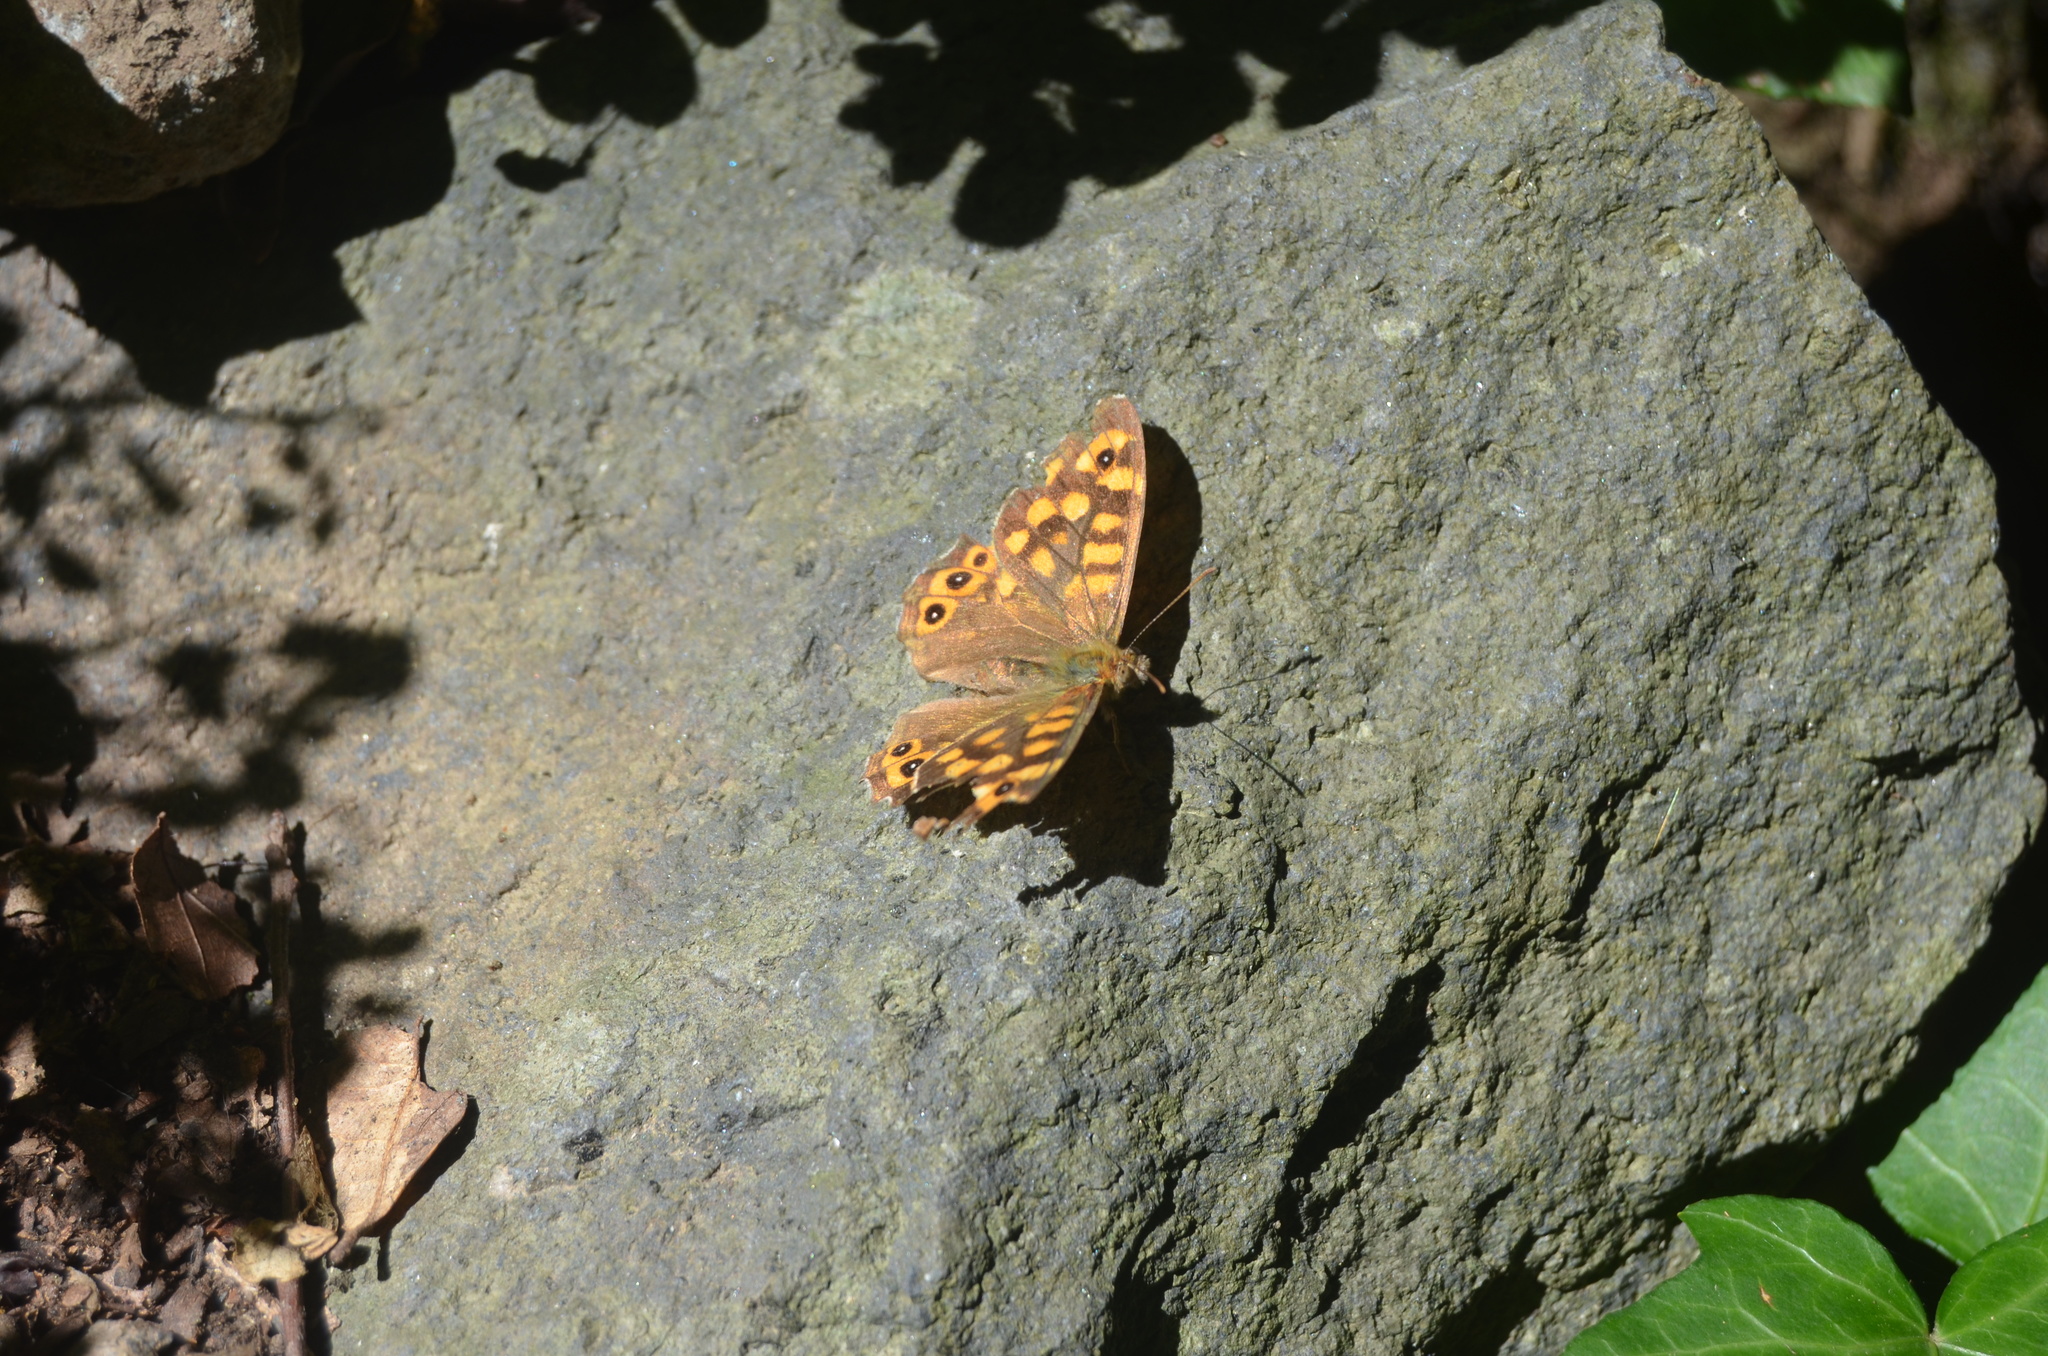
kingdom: Animalia
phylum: Arthropoda
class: Insecta
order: Lepidoptera
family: Nymphalidae
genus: Pararge
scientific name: Pararge aegeria
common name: Speckled wood
